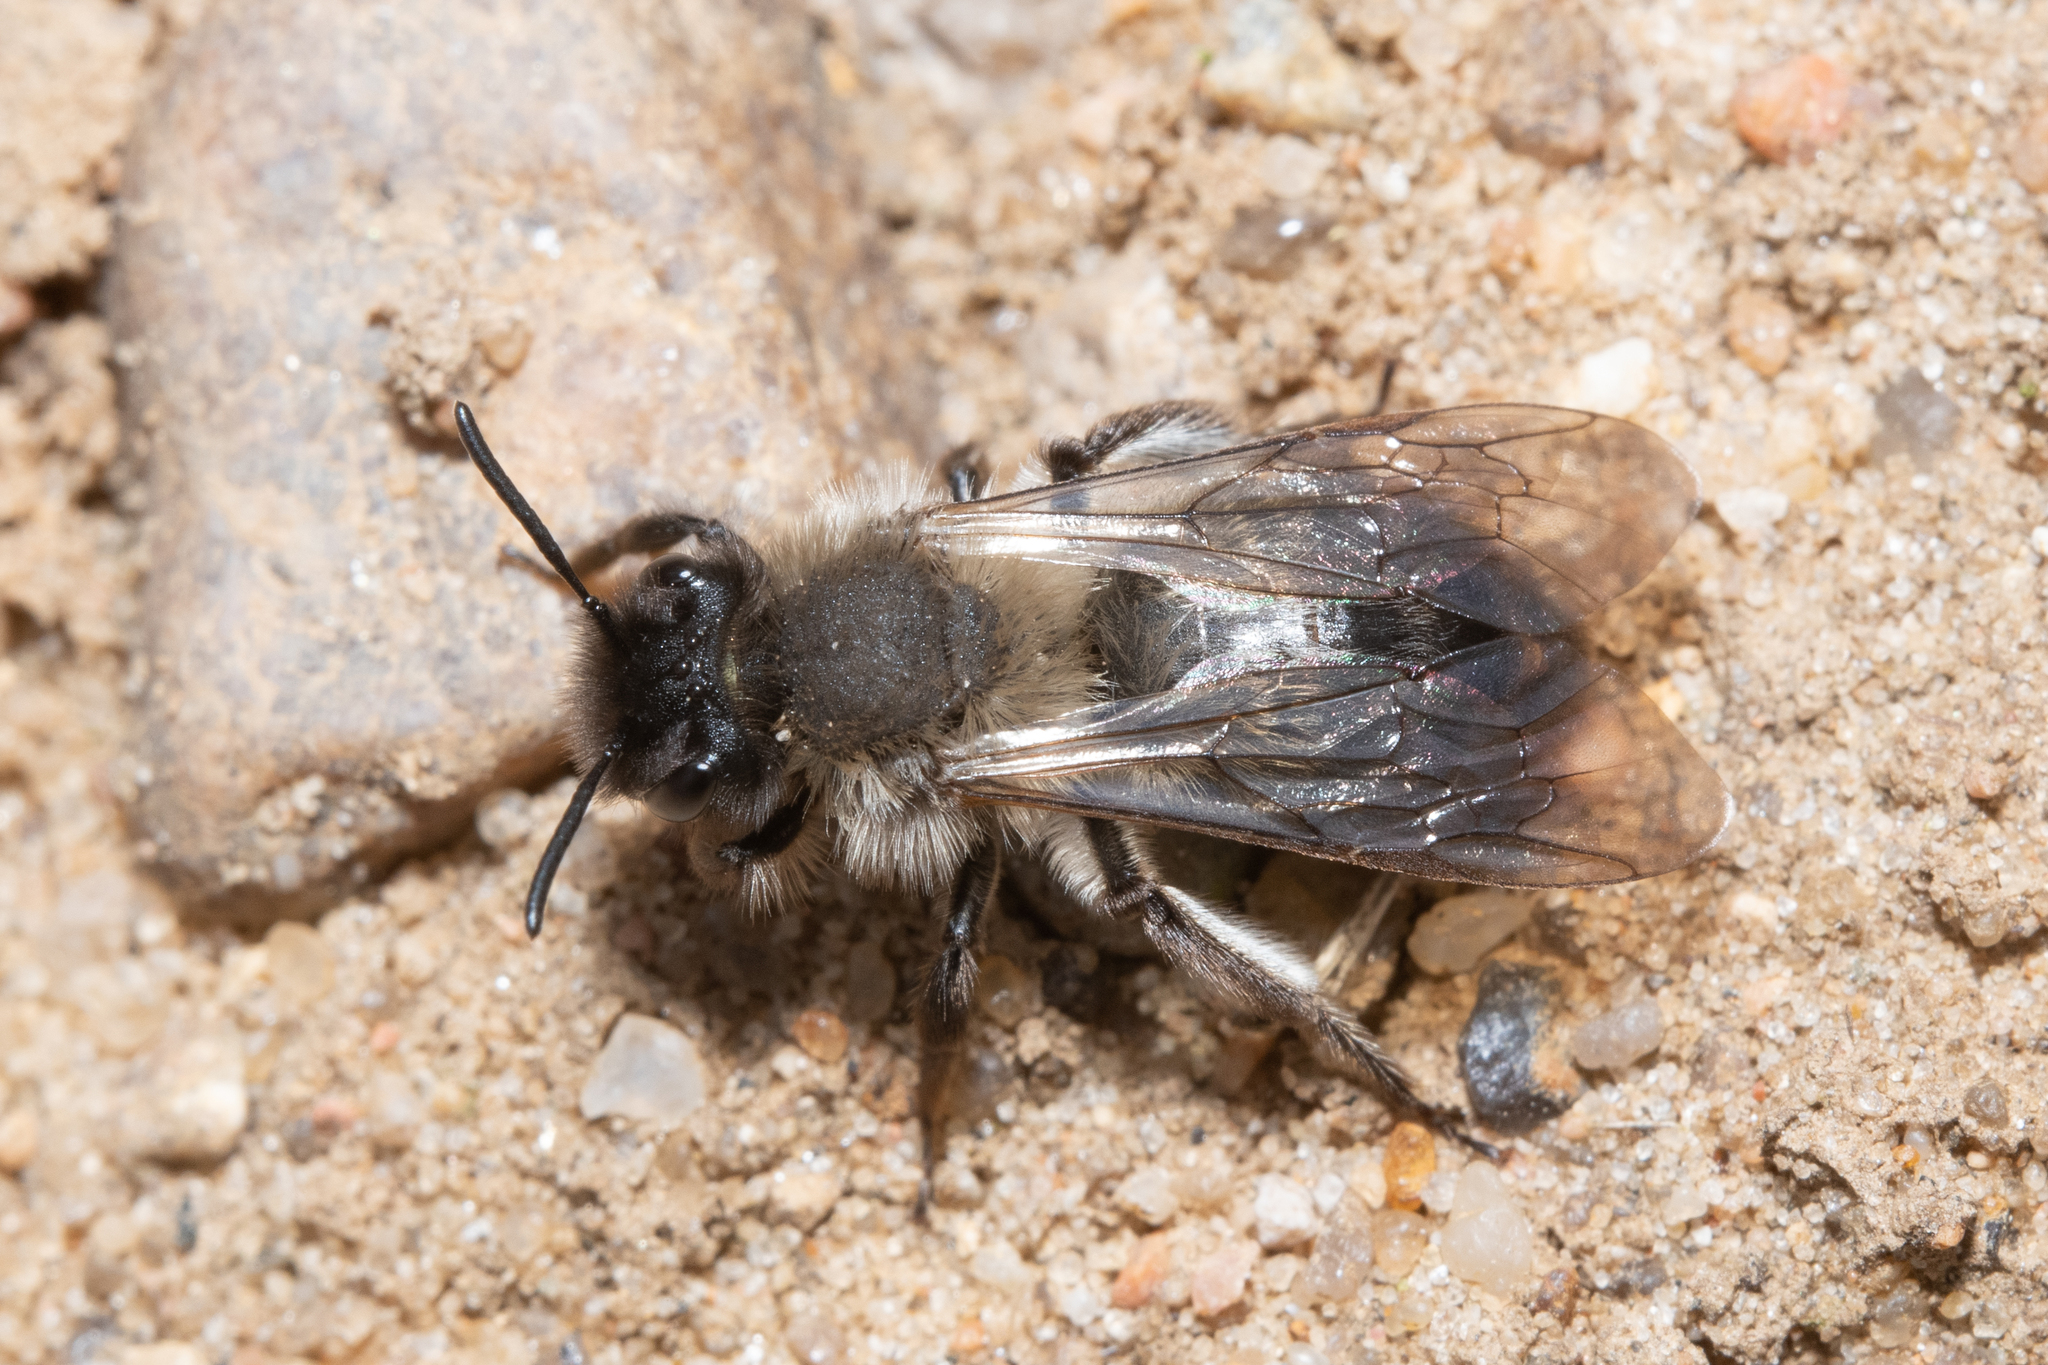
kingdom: Animalia
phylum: Arthropoda
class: Insecta
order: Hymenoptera
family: Andrenidae
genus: Andrena
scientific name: Andrena nycthemera
